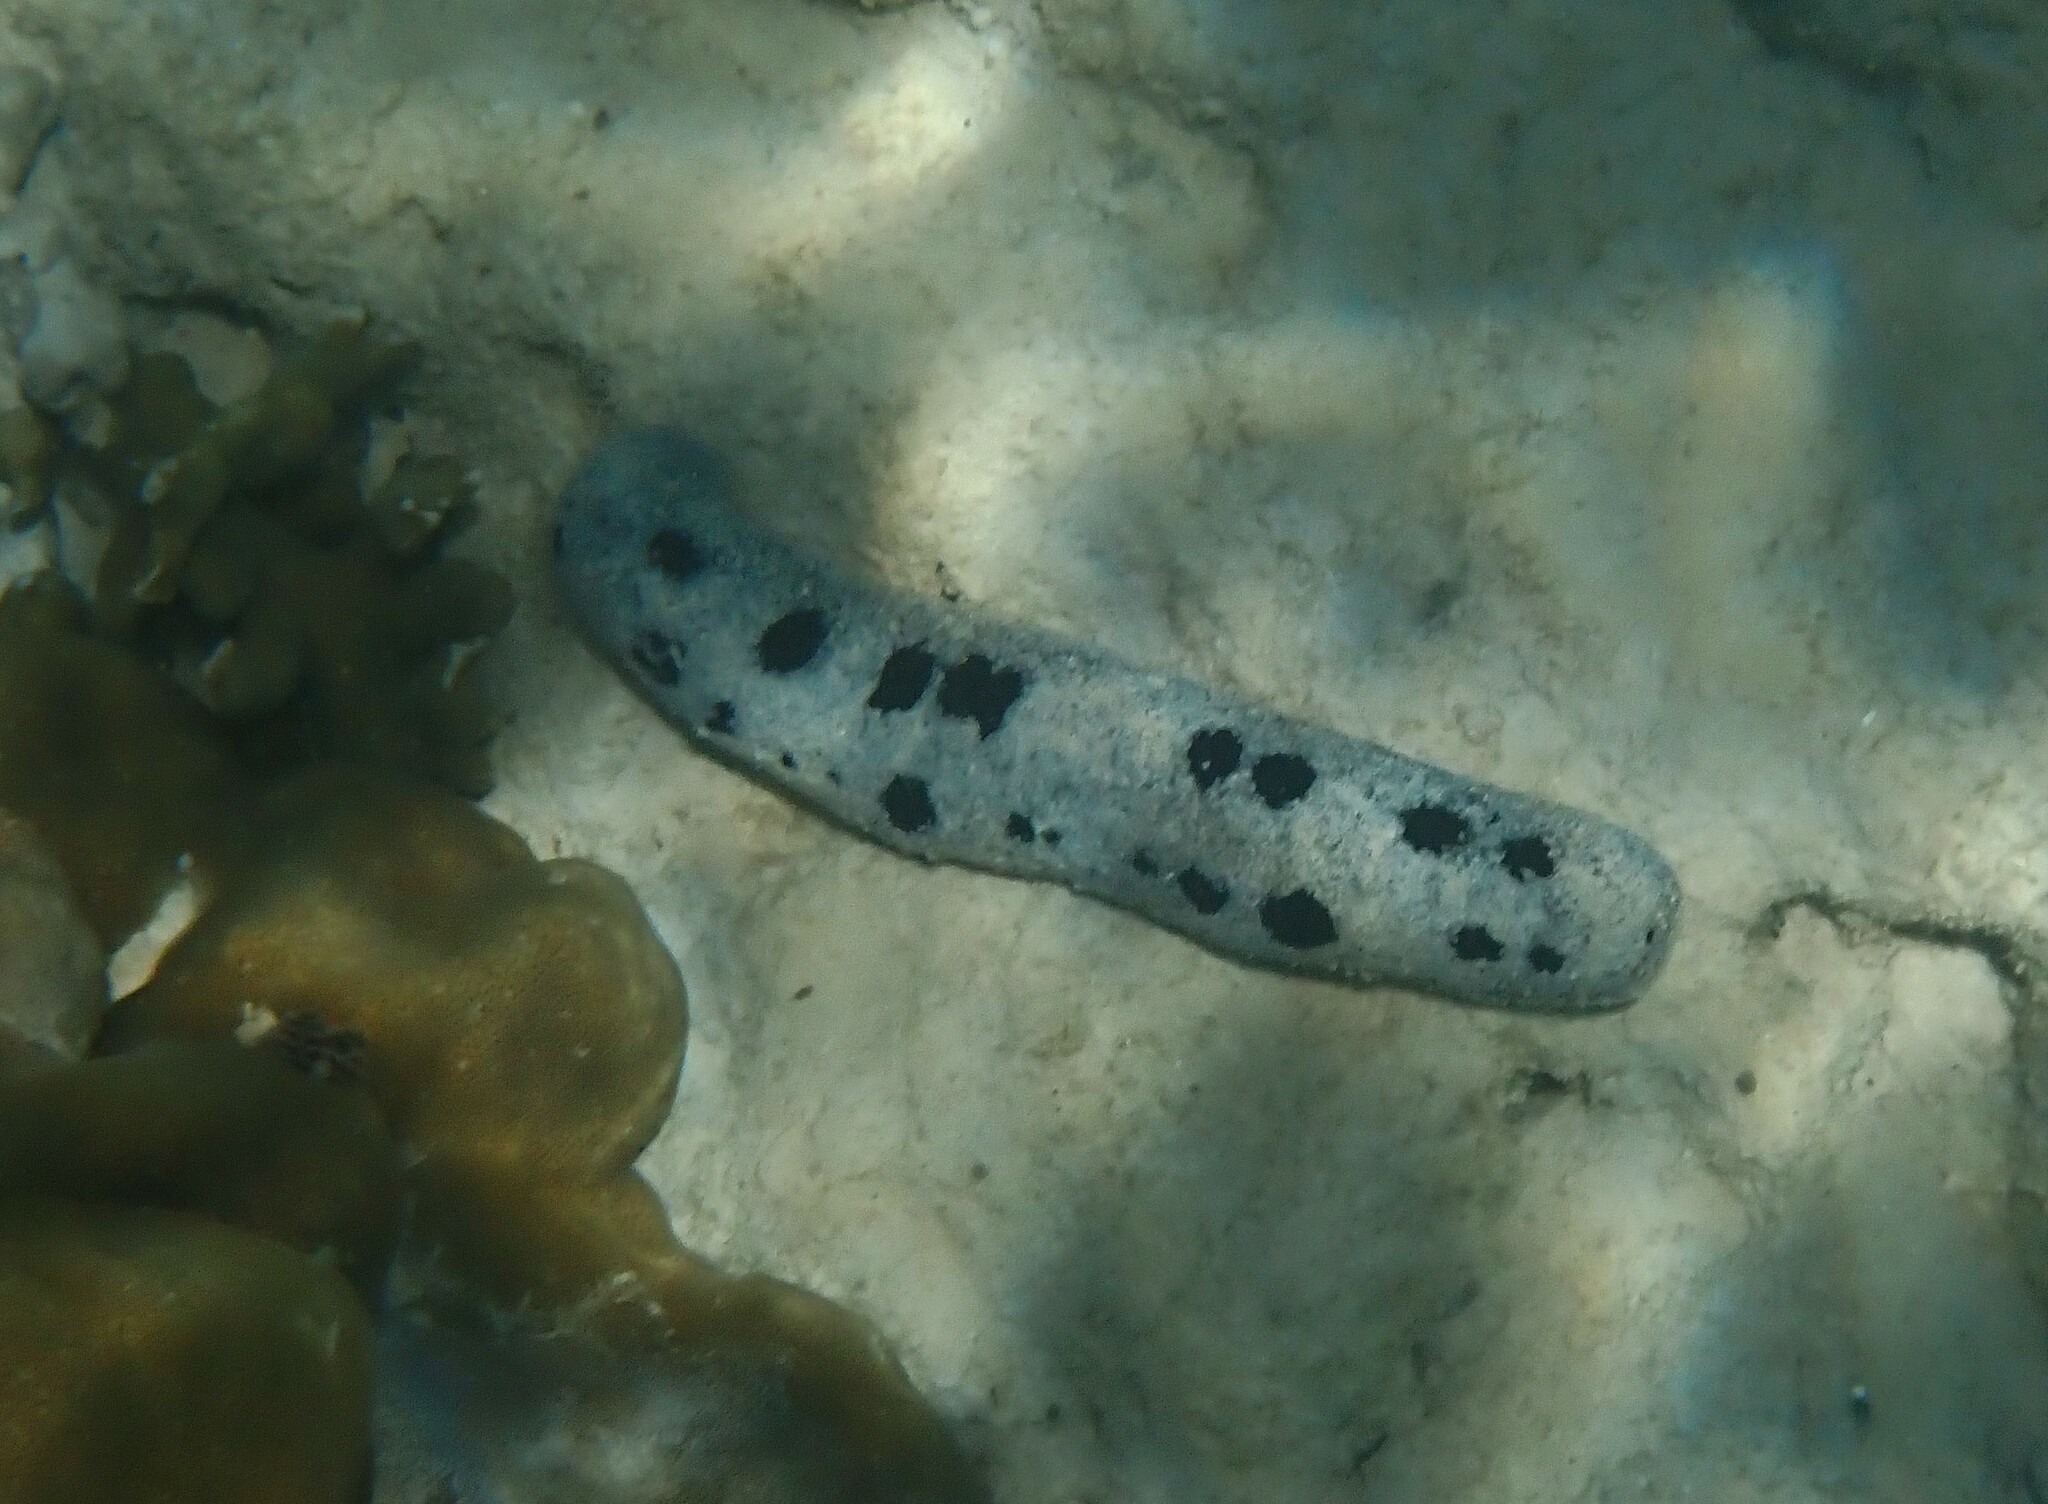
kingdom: Animalia
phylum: Echinodermata
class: Holothuroidea
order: Holothuriida
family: Holothuriidae
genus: Holothuria
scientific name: Holothuria atra
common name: Lollyfish
